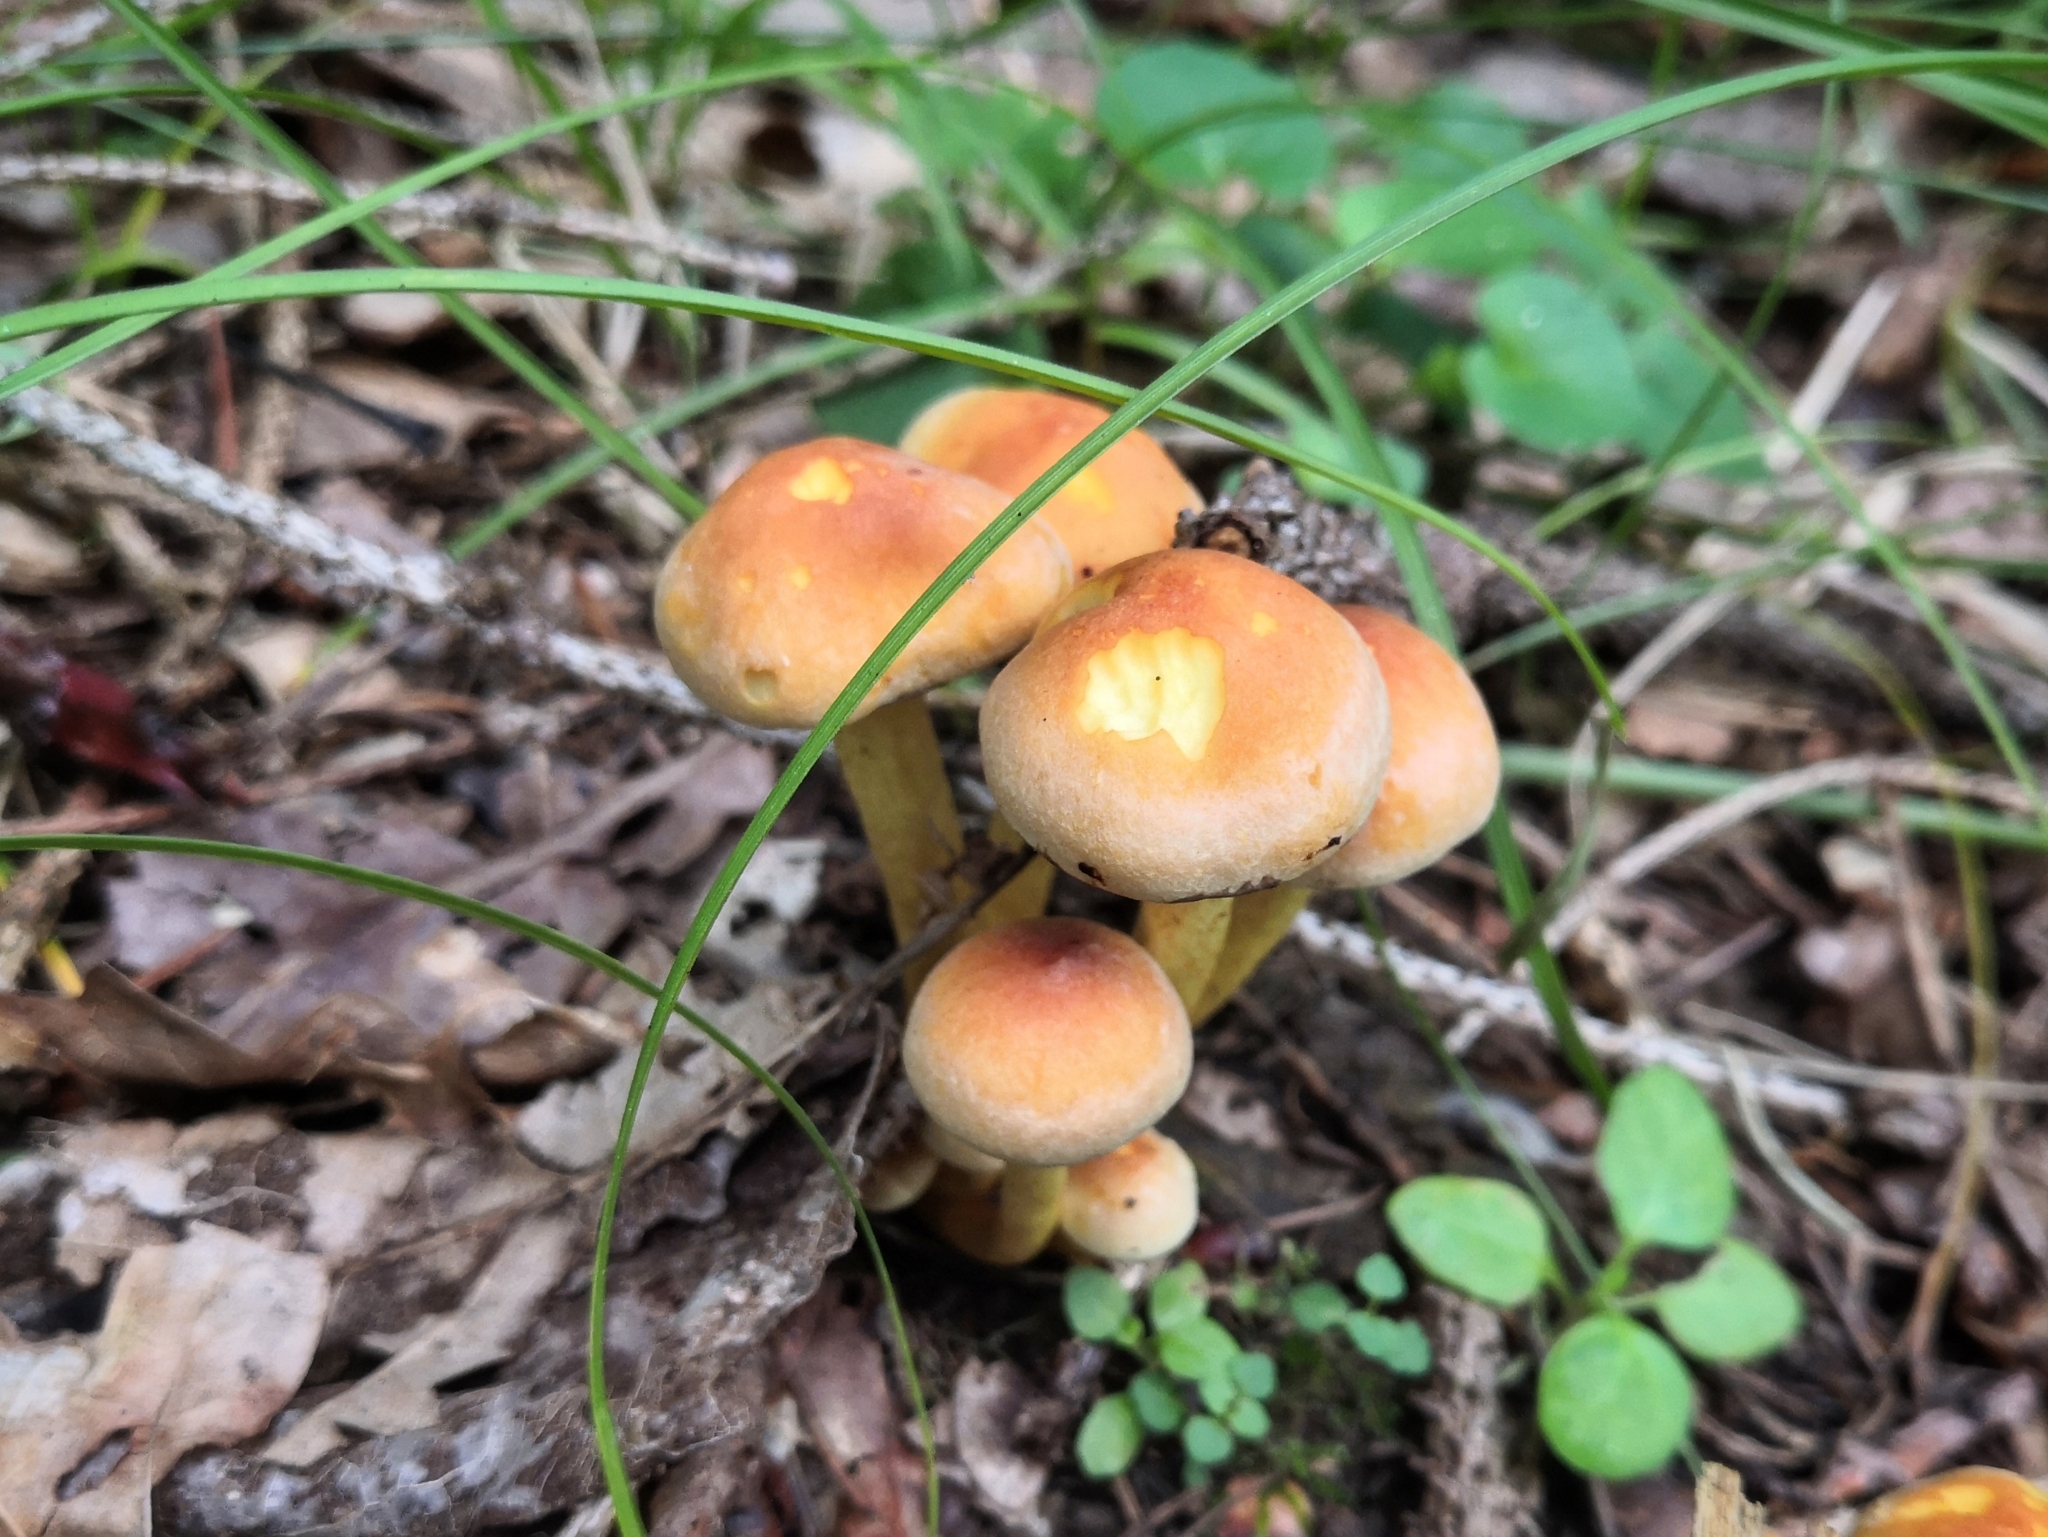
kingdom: Fungi
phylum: Basidiomycota
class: Agaricomycetes
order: Agaricales
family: Strophariaceae
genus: Hypholoma
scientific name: Hypholoma fasciculare
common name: Sulphur tuft
